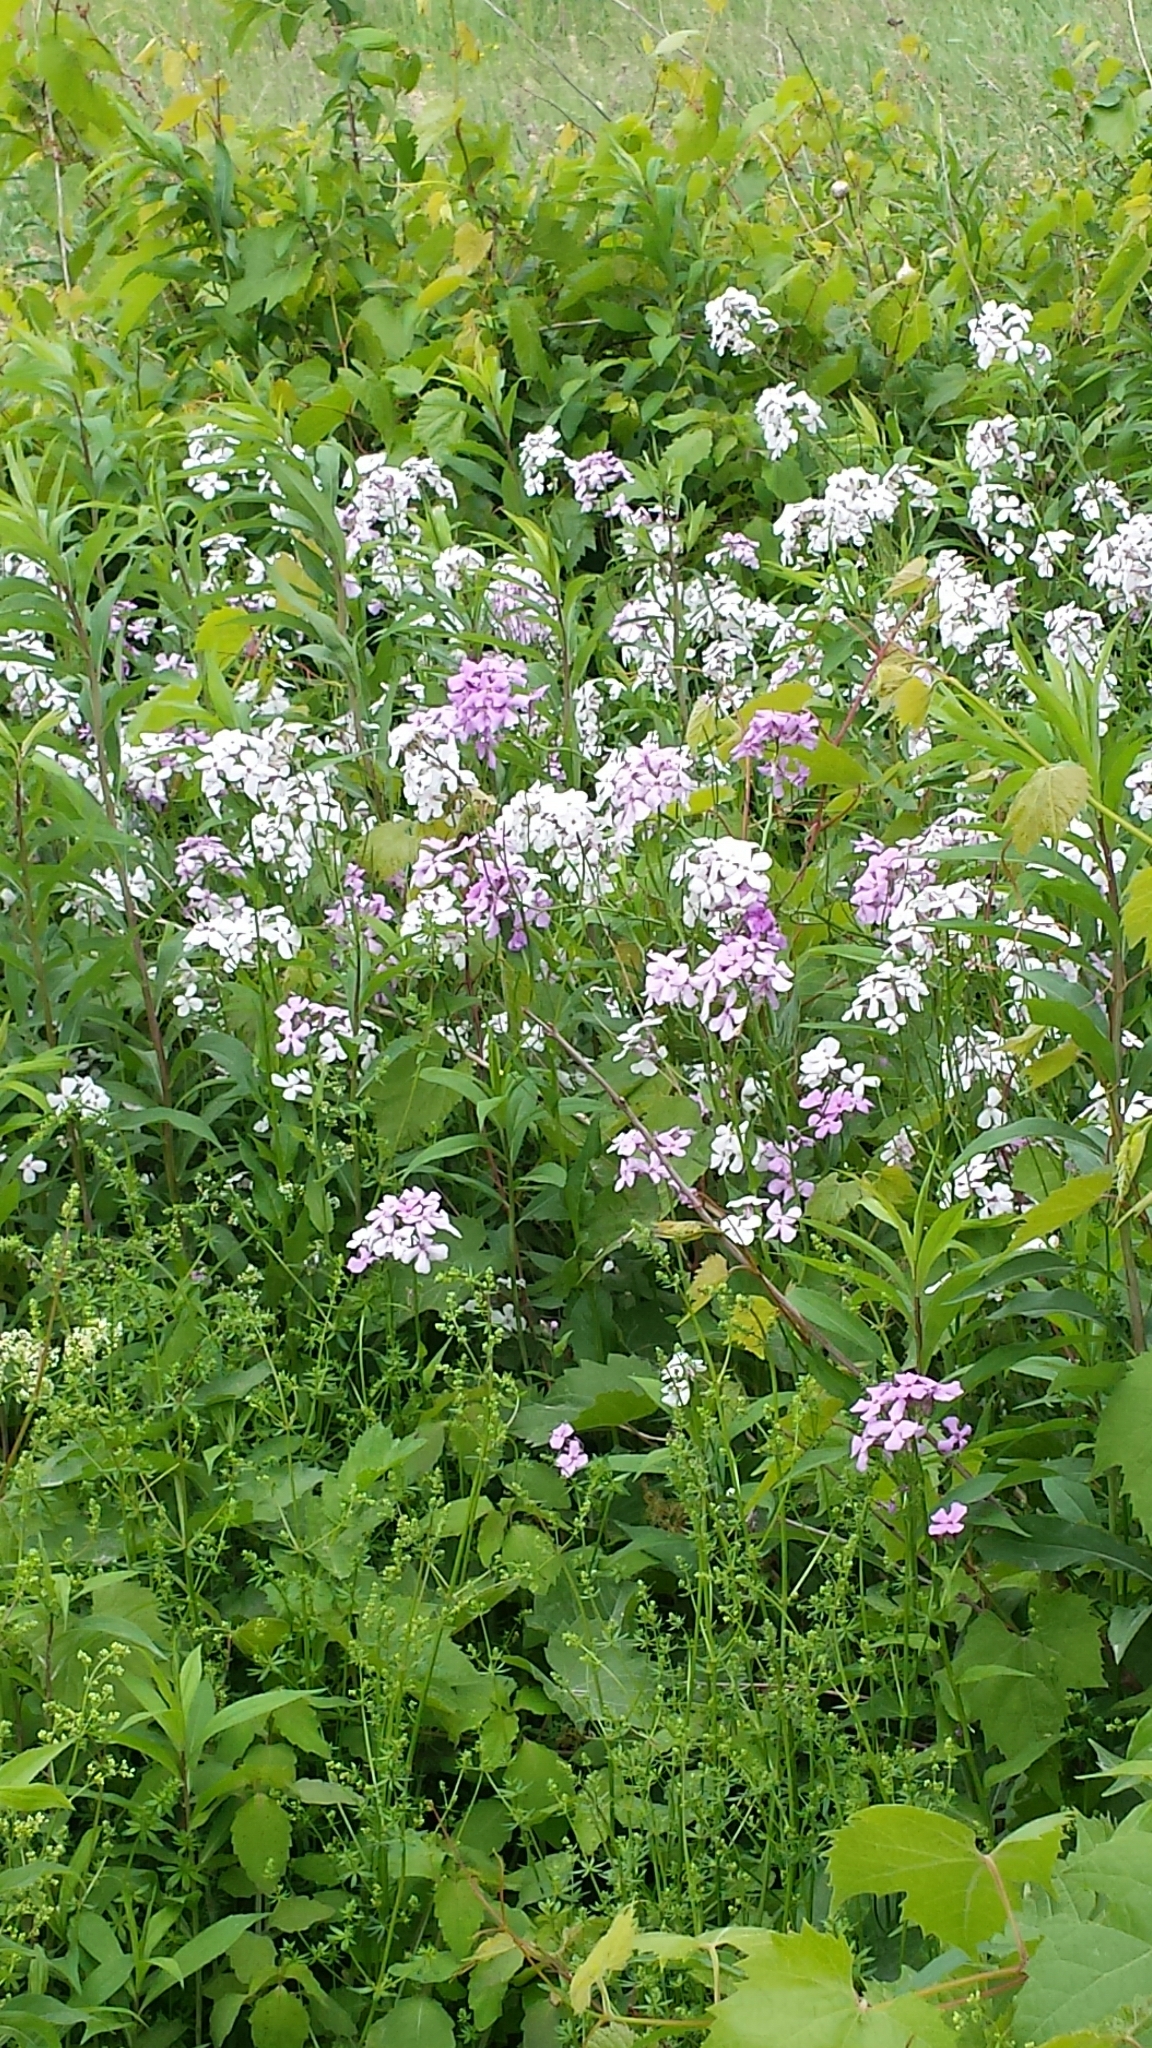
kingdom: Plantae
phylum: Tracheophyta
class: Magnoliopsida
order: Brassicales
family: Brassicaceae
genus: Hesperis
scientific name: Hesperis matronalis
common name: Dame's-violet
